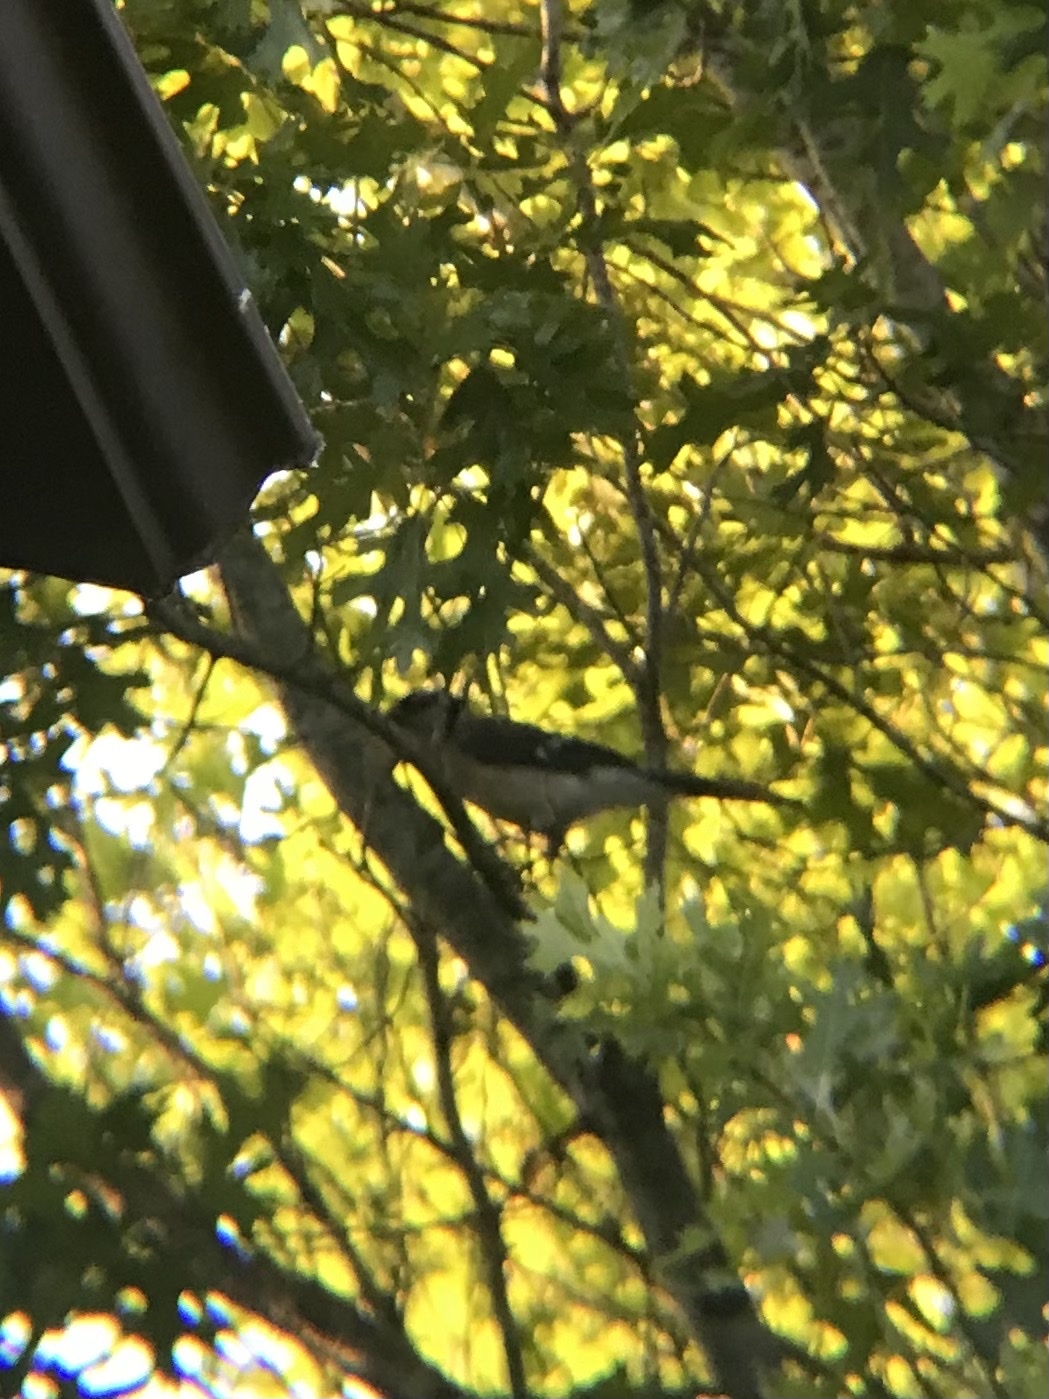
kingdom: Animalia
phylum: Chordata
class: Aves
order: Passeriformes
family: Corvidae
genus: Cyanocitta
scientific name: Cyanocitta cristata
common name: Blue jay
